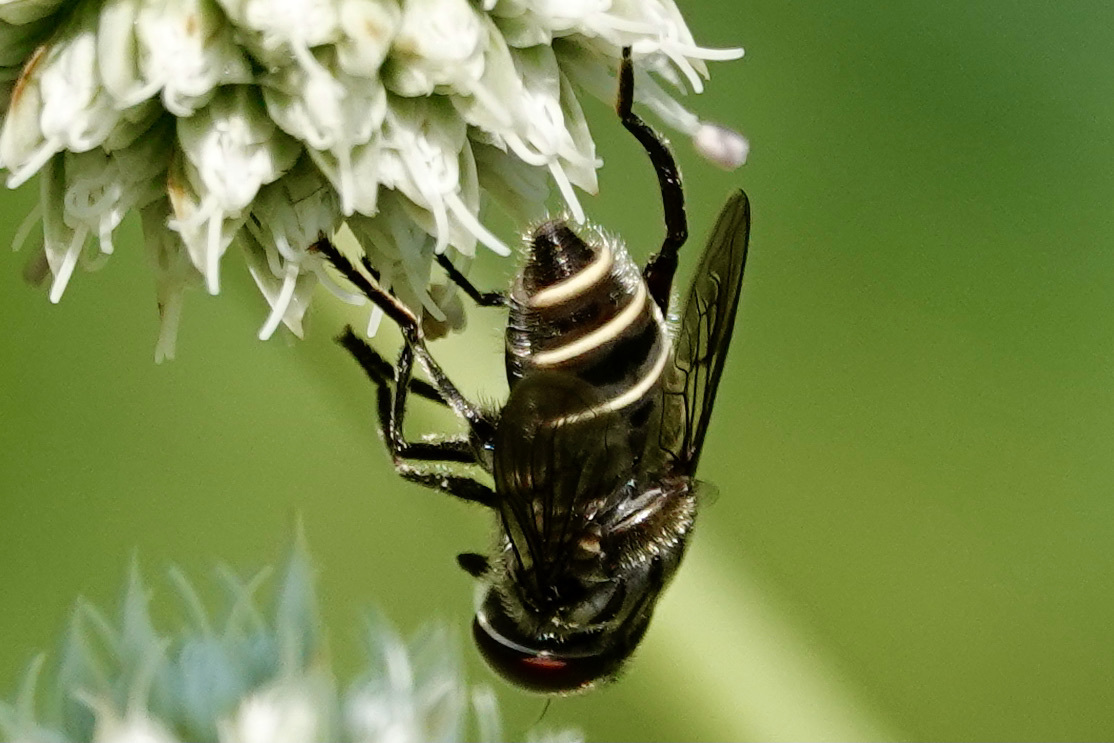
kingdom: Animalia
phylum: Arthropoda
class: Insecta
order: Diptera
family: Syrphidae
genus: Palpada
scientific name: Palpada furcata
